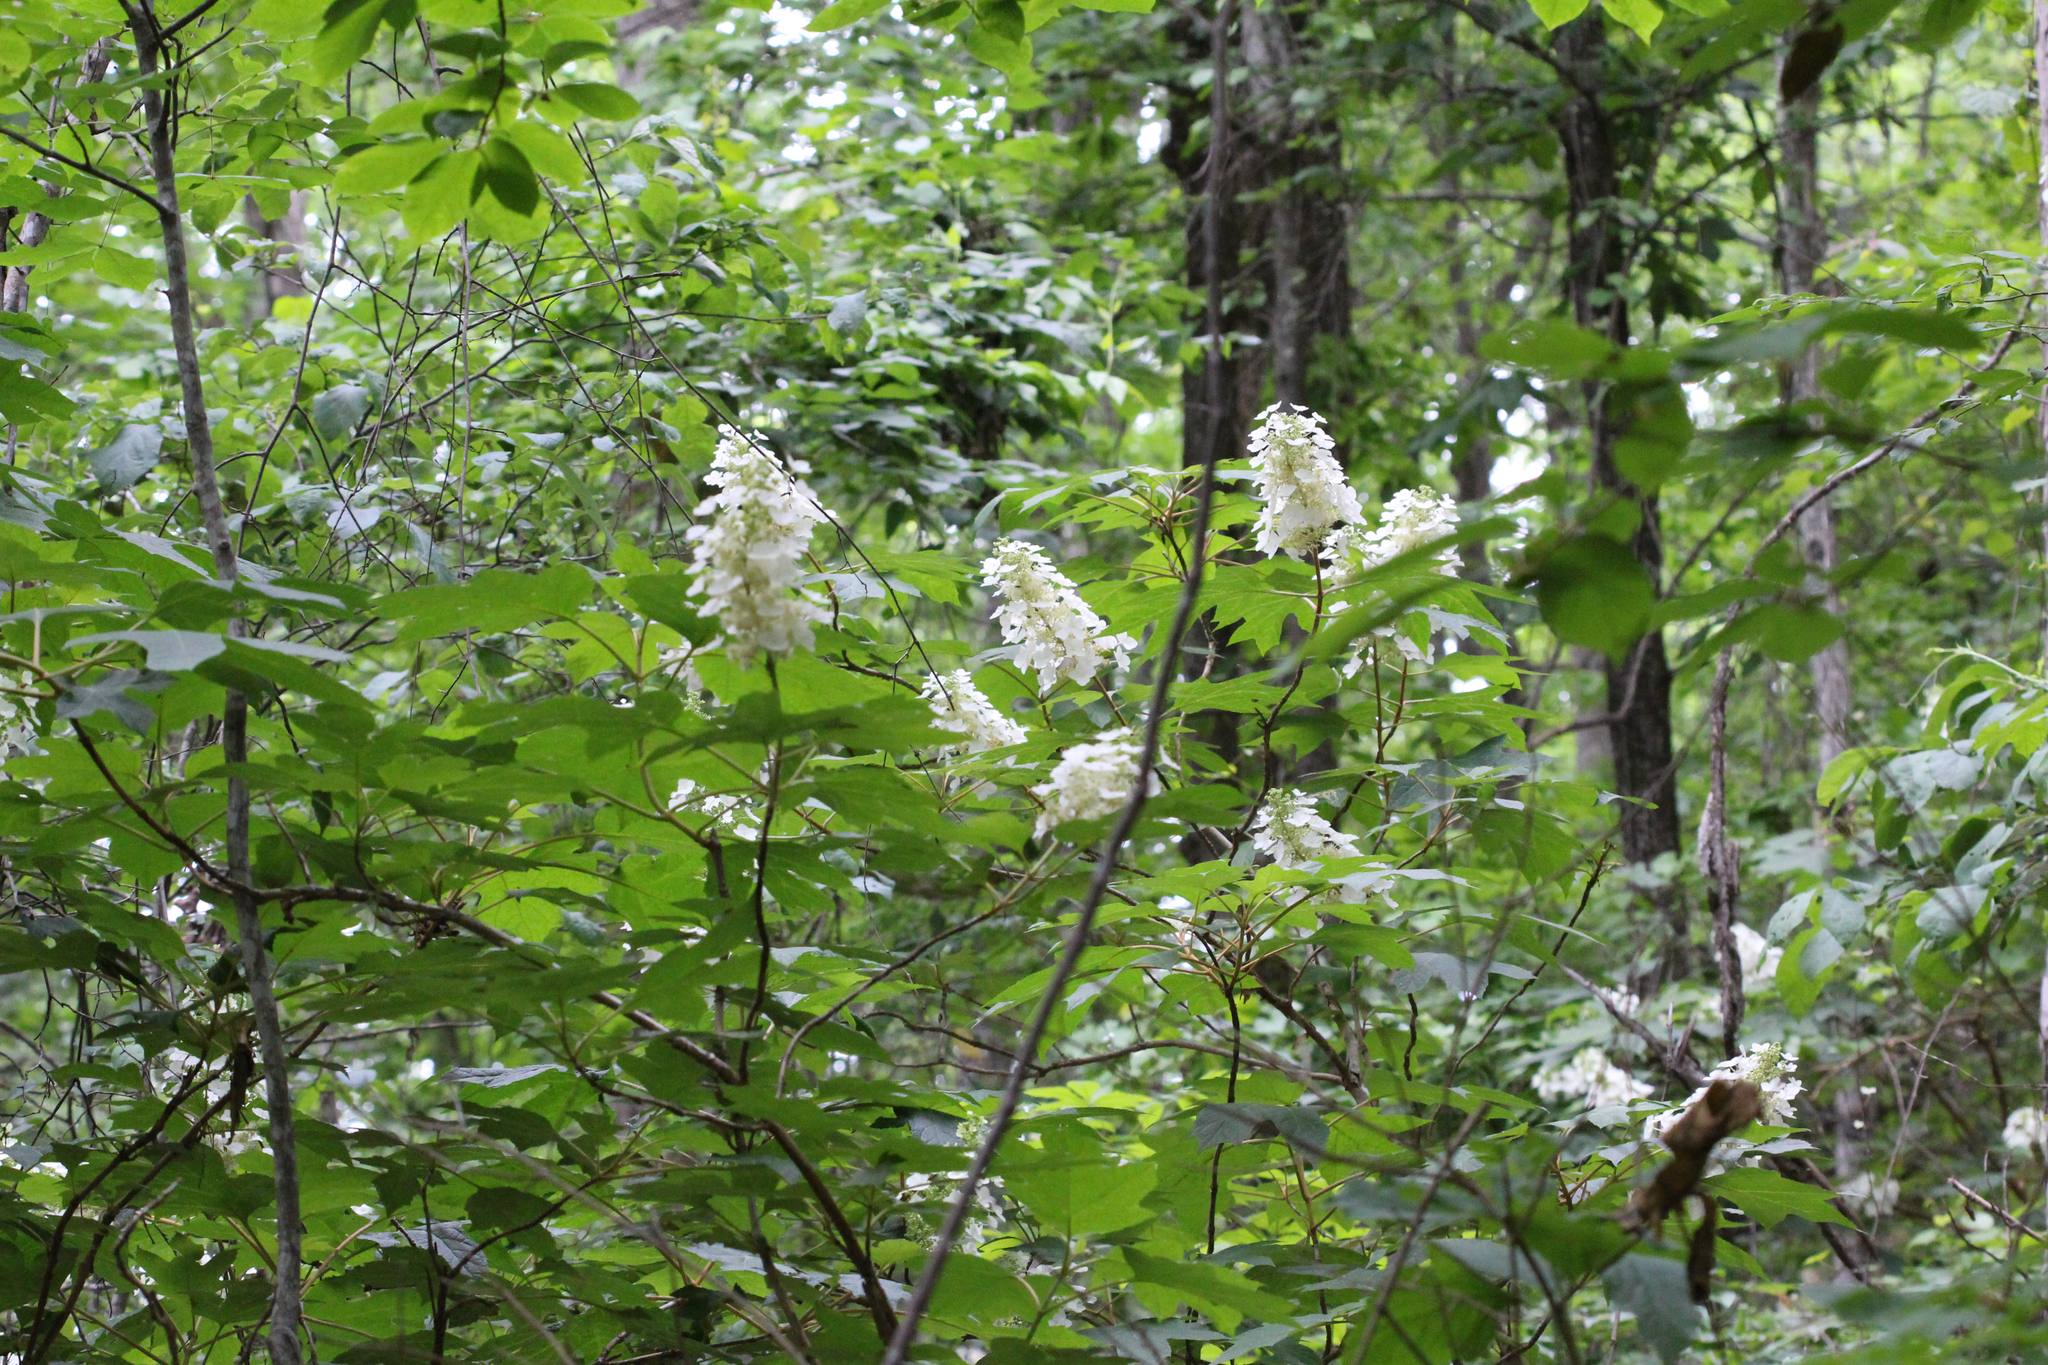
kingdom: Plantae
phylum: Tracheophyta
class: Magnoliopsida
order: Cornales
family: Hydrangeaceae
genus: Hydrangea
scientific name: Hydrangea quercifolia
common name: Oak-leaf hydrangea
